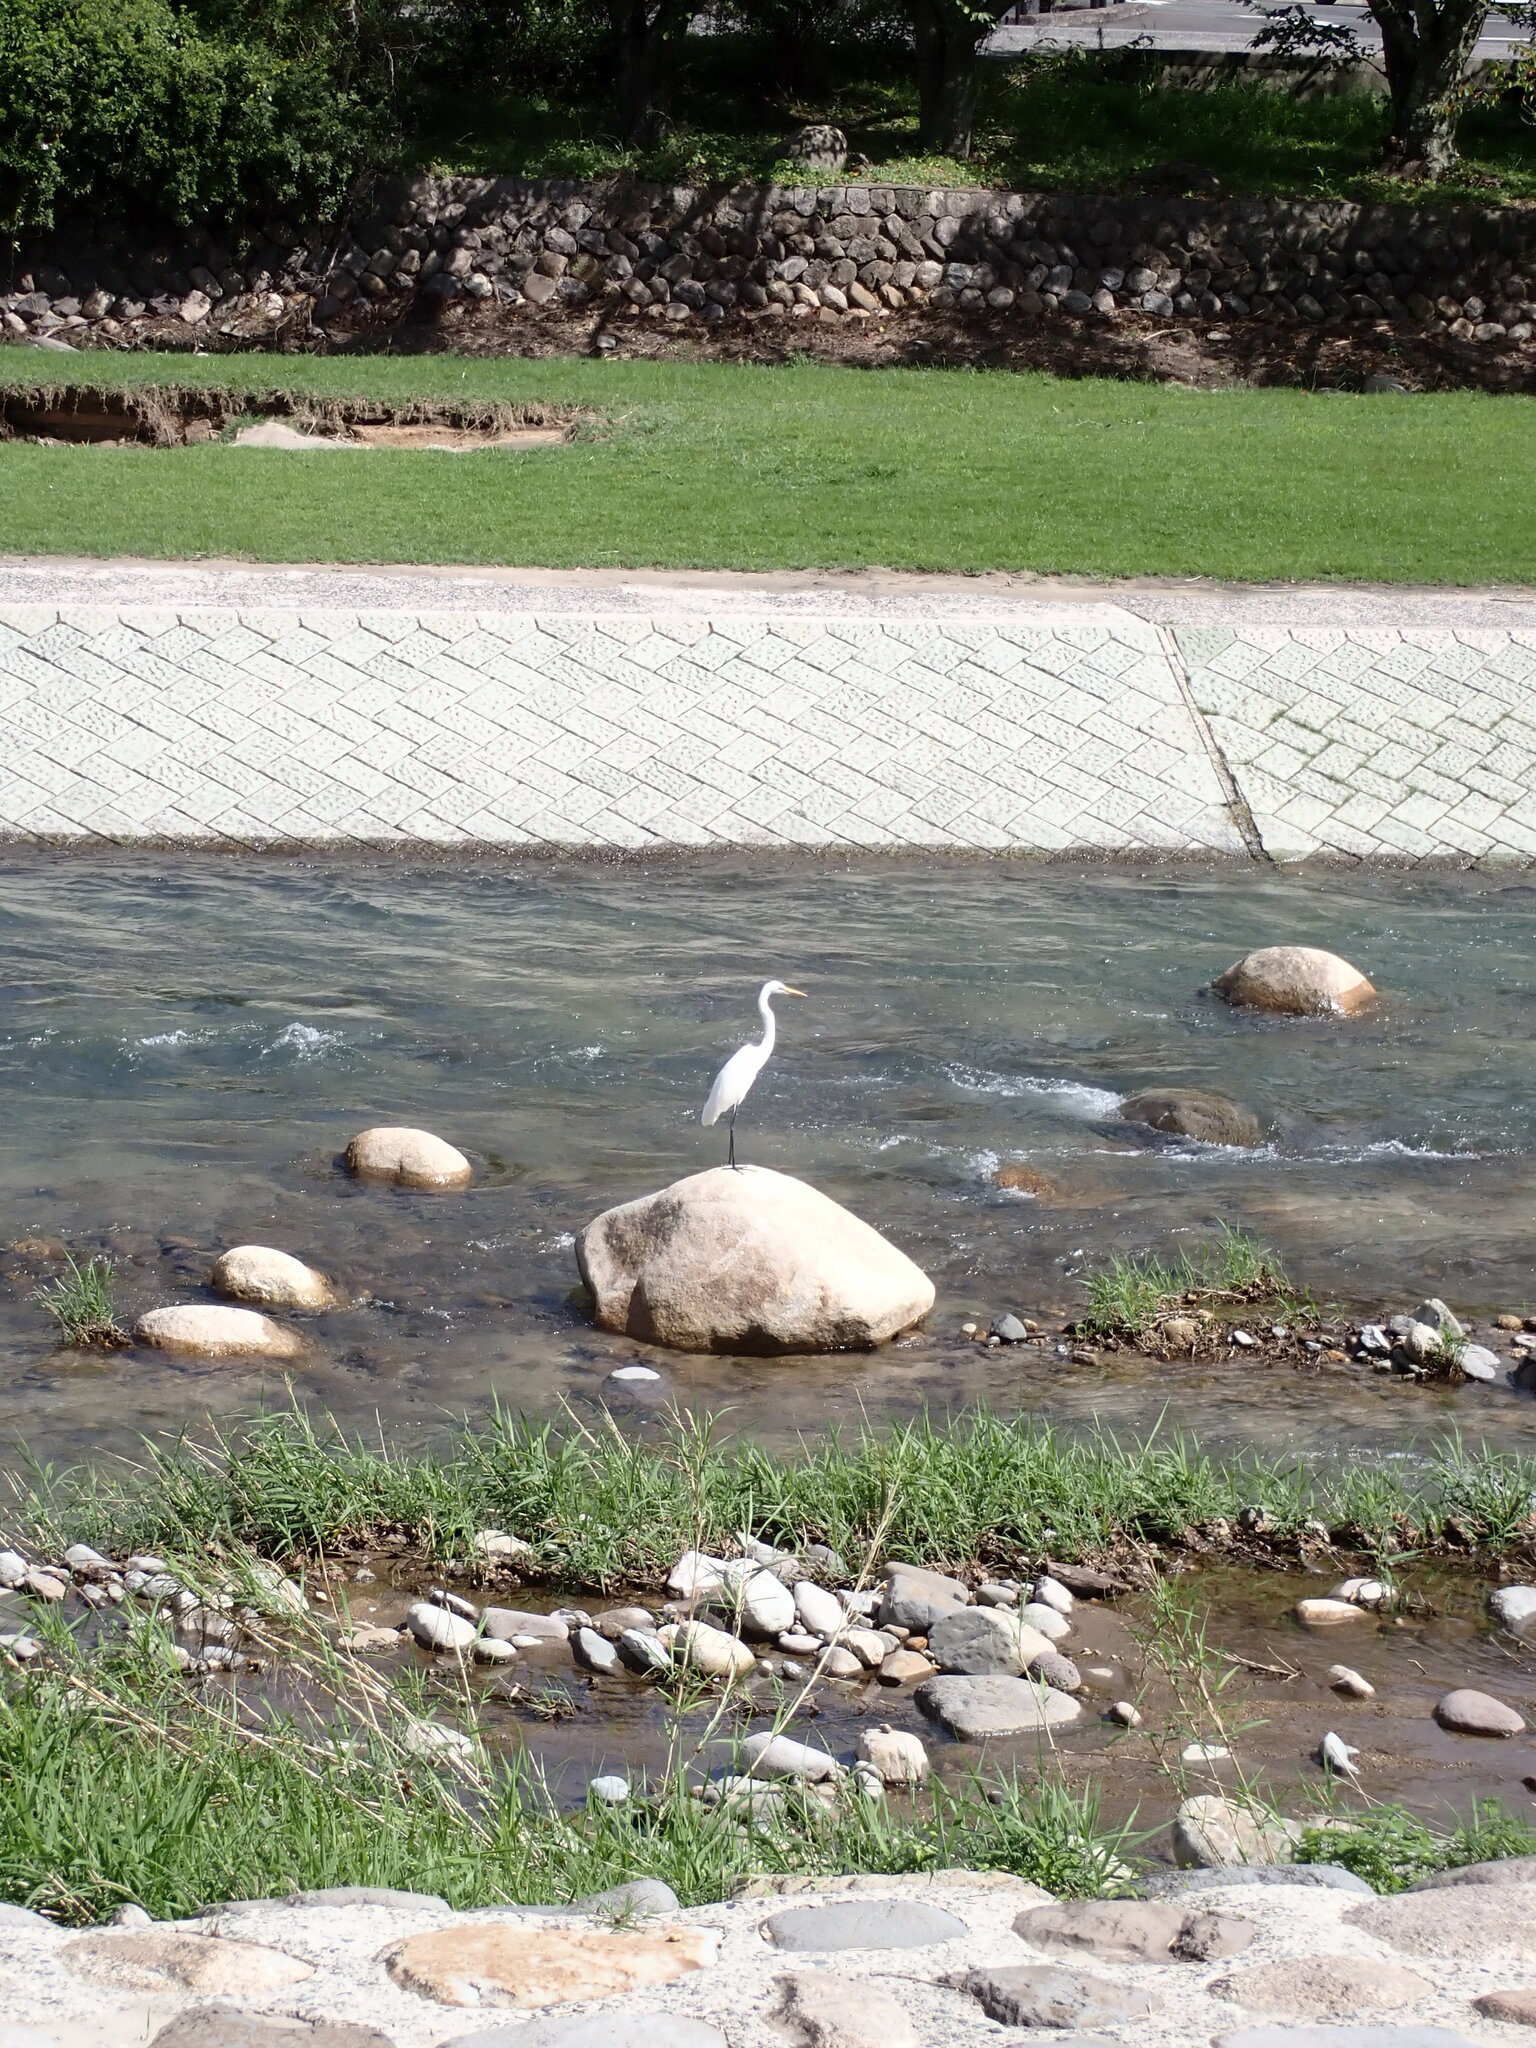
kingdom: Animalia
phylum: Chordata
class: Aves
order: Pelecaniformes
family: Ardeidae
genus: Ardea
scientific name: Ardea alba
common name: Great egret
